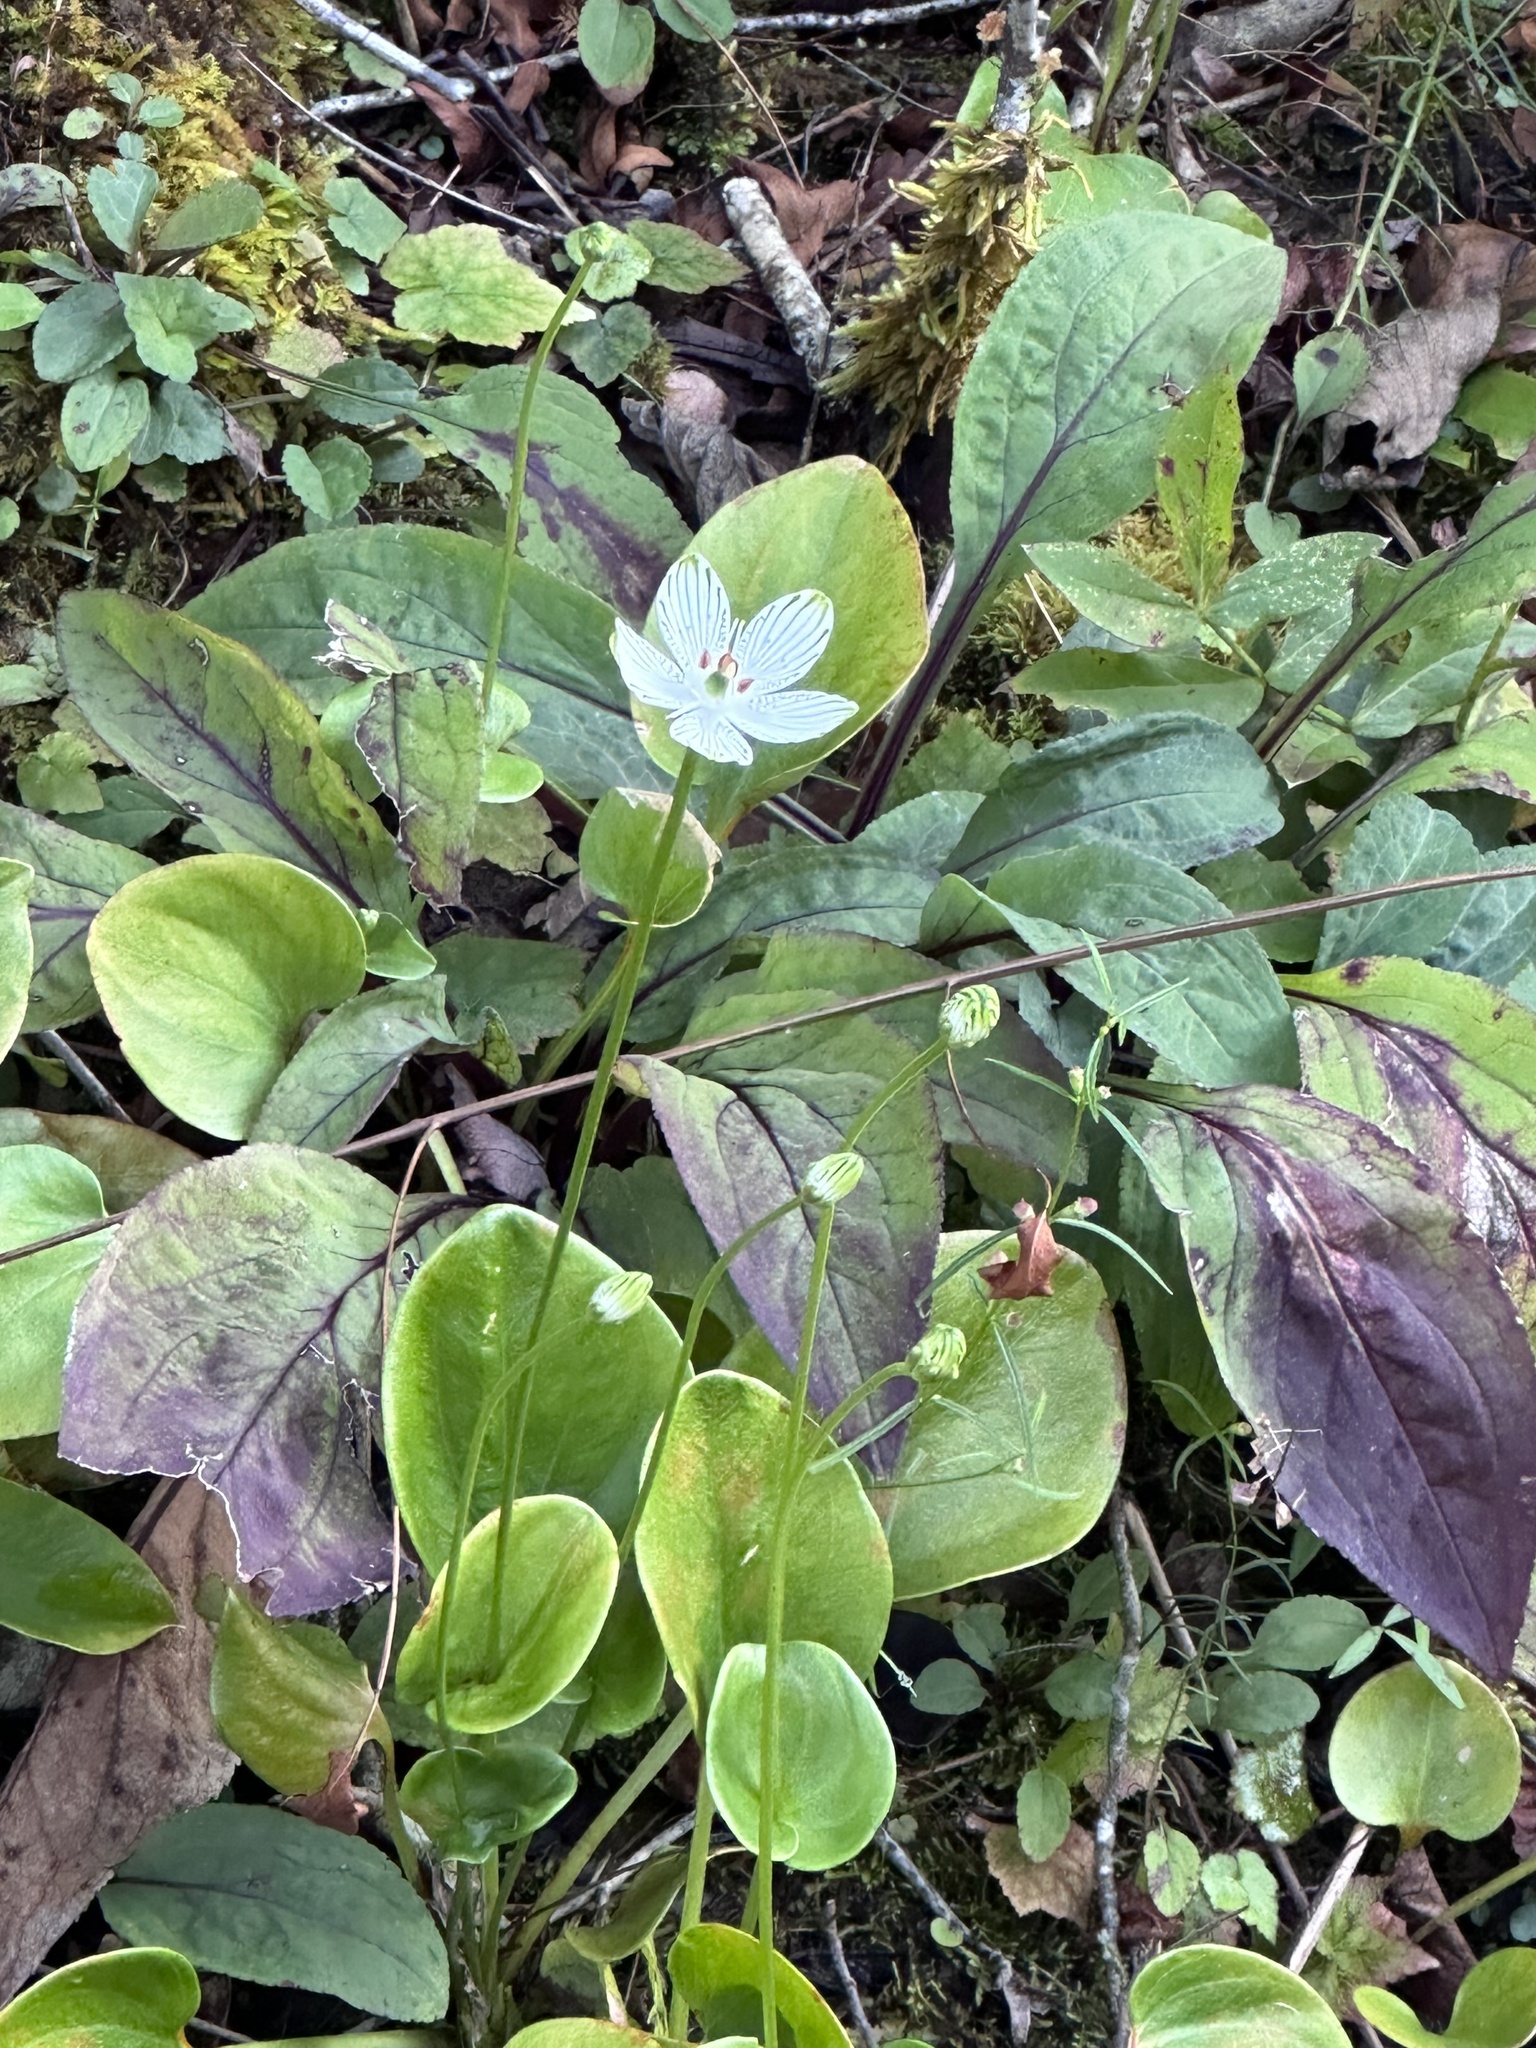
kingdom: Plantae
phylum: Tracheophyta
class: Magnoliopsida
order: Celastrales
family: Parnassiaceae
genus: Parnassia
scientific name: Parnassia grandifolia
